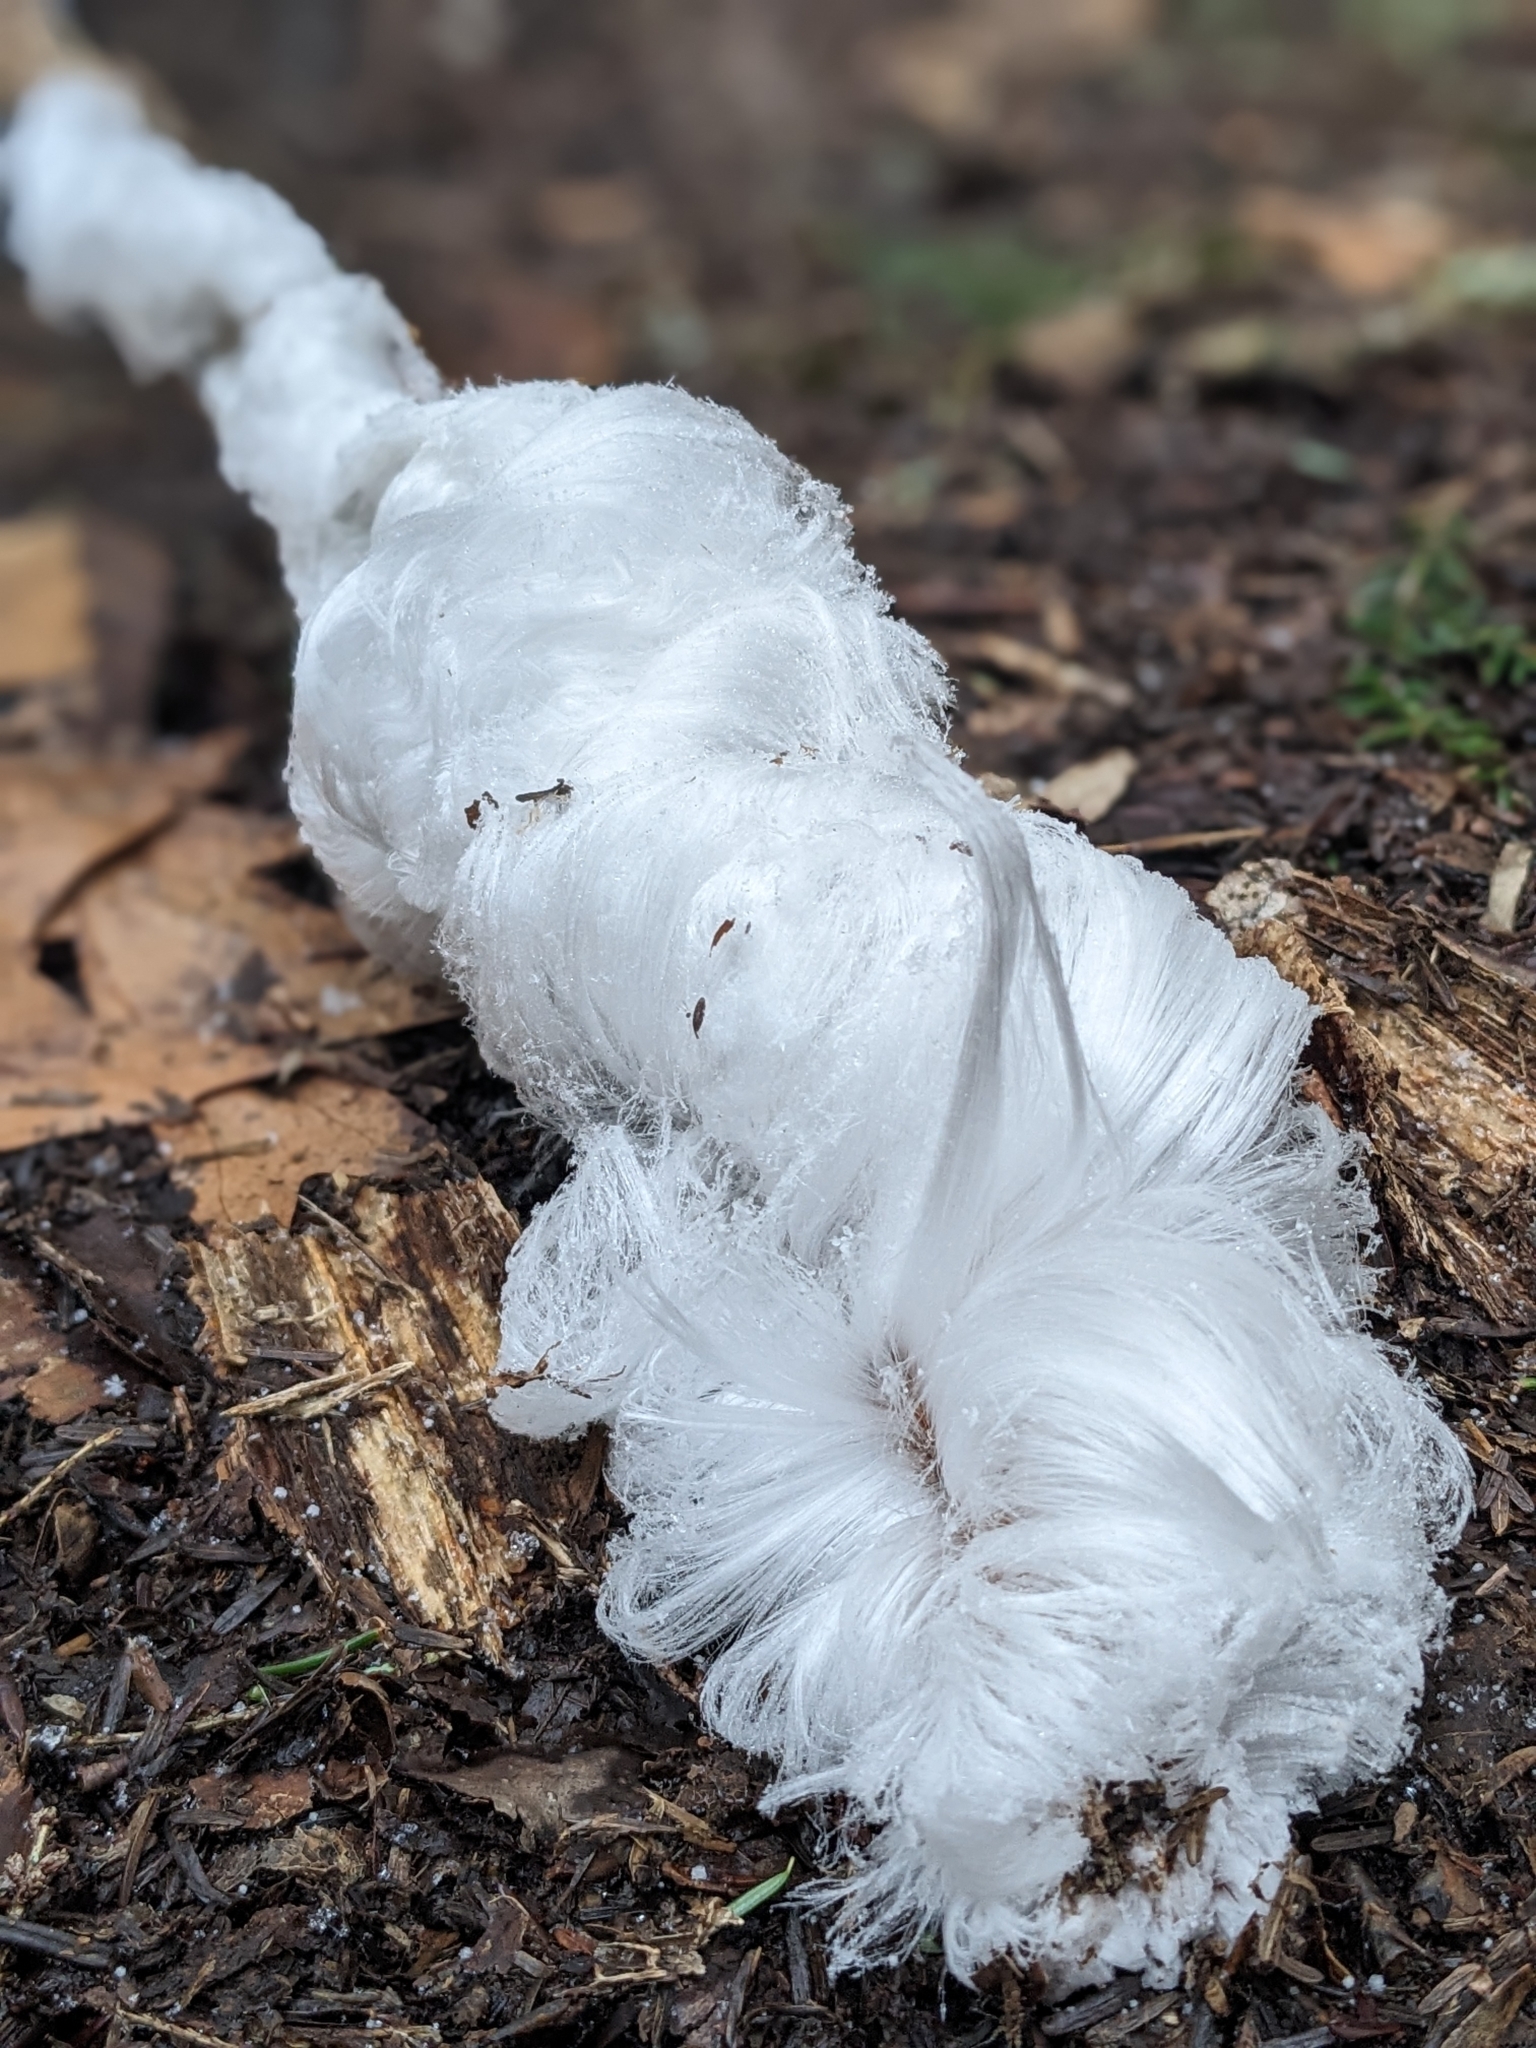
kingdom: Fungi
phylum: Basidiomycota
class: Agaricomycetes
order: Auriculariales
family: Auriculariaceae
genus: Exidiopsis
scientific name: Exidiopsis effusa
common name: Hair ice crust
